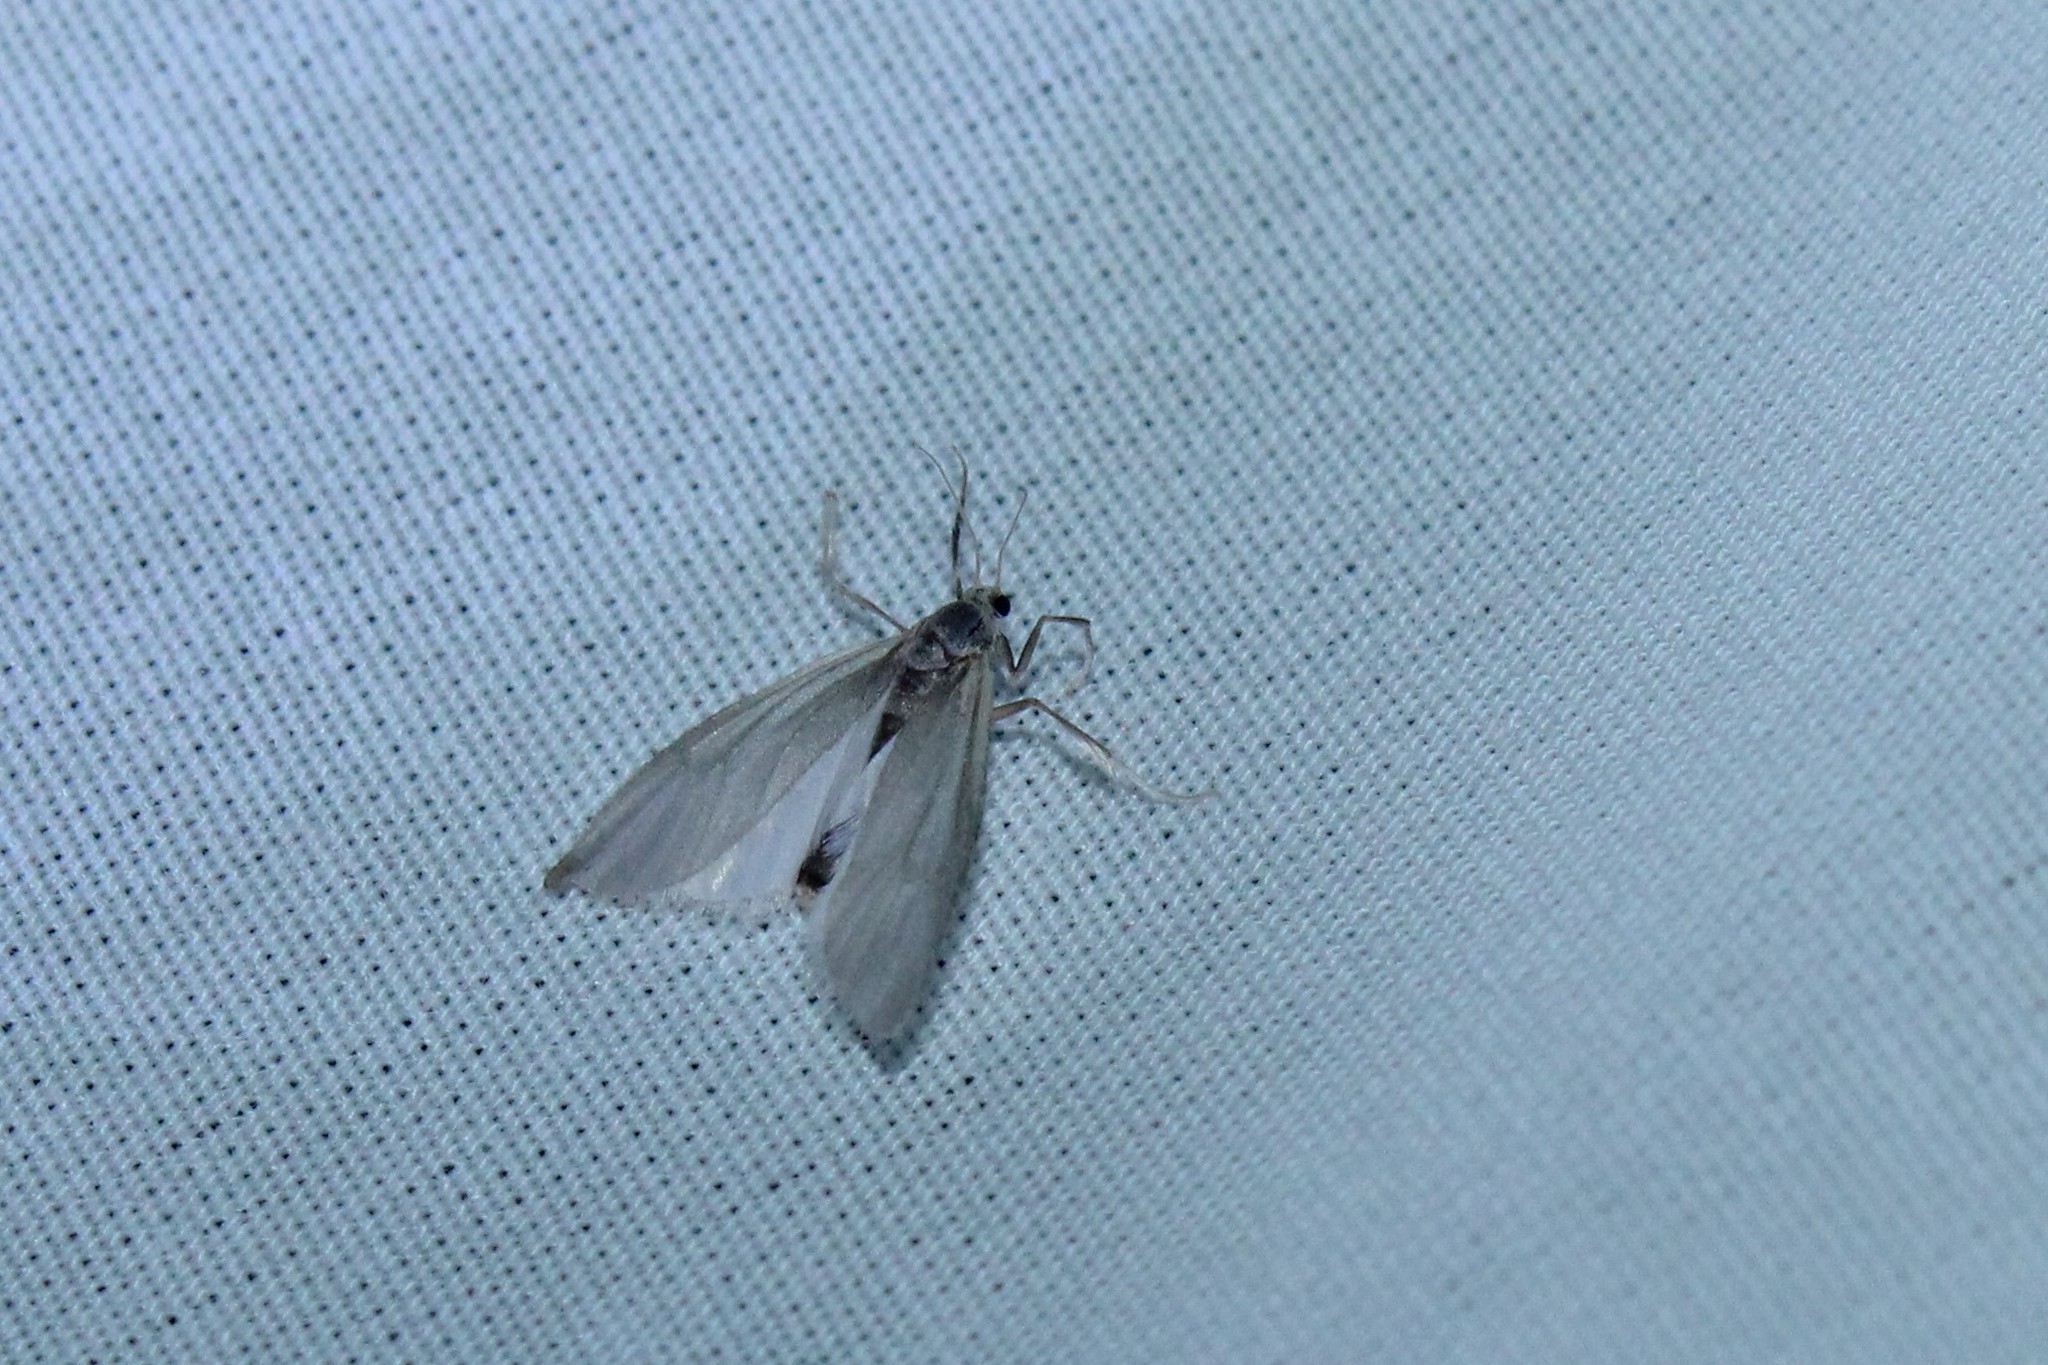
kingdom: Animalia
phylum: Arthropoda
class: Insecta
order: Lepidoptera
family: Crambidae
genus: Acentria
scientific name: Acentria ephemerella
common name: European water moth
